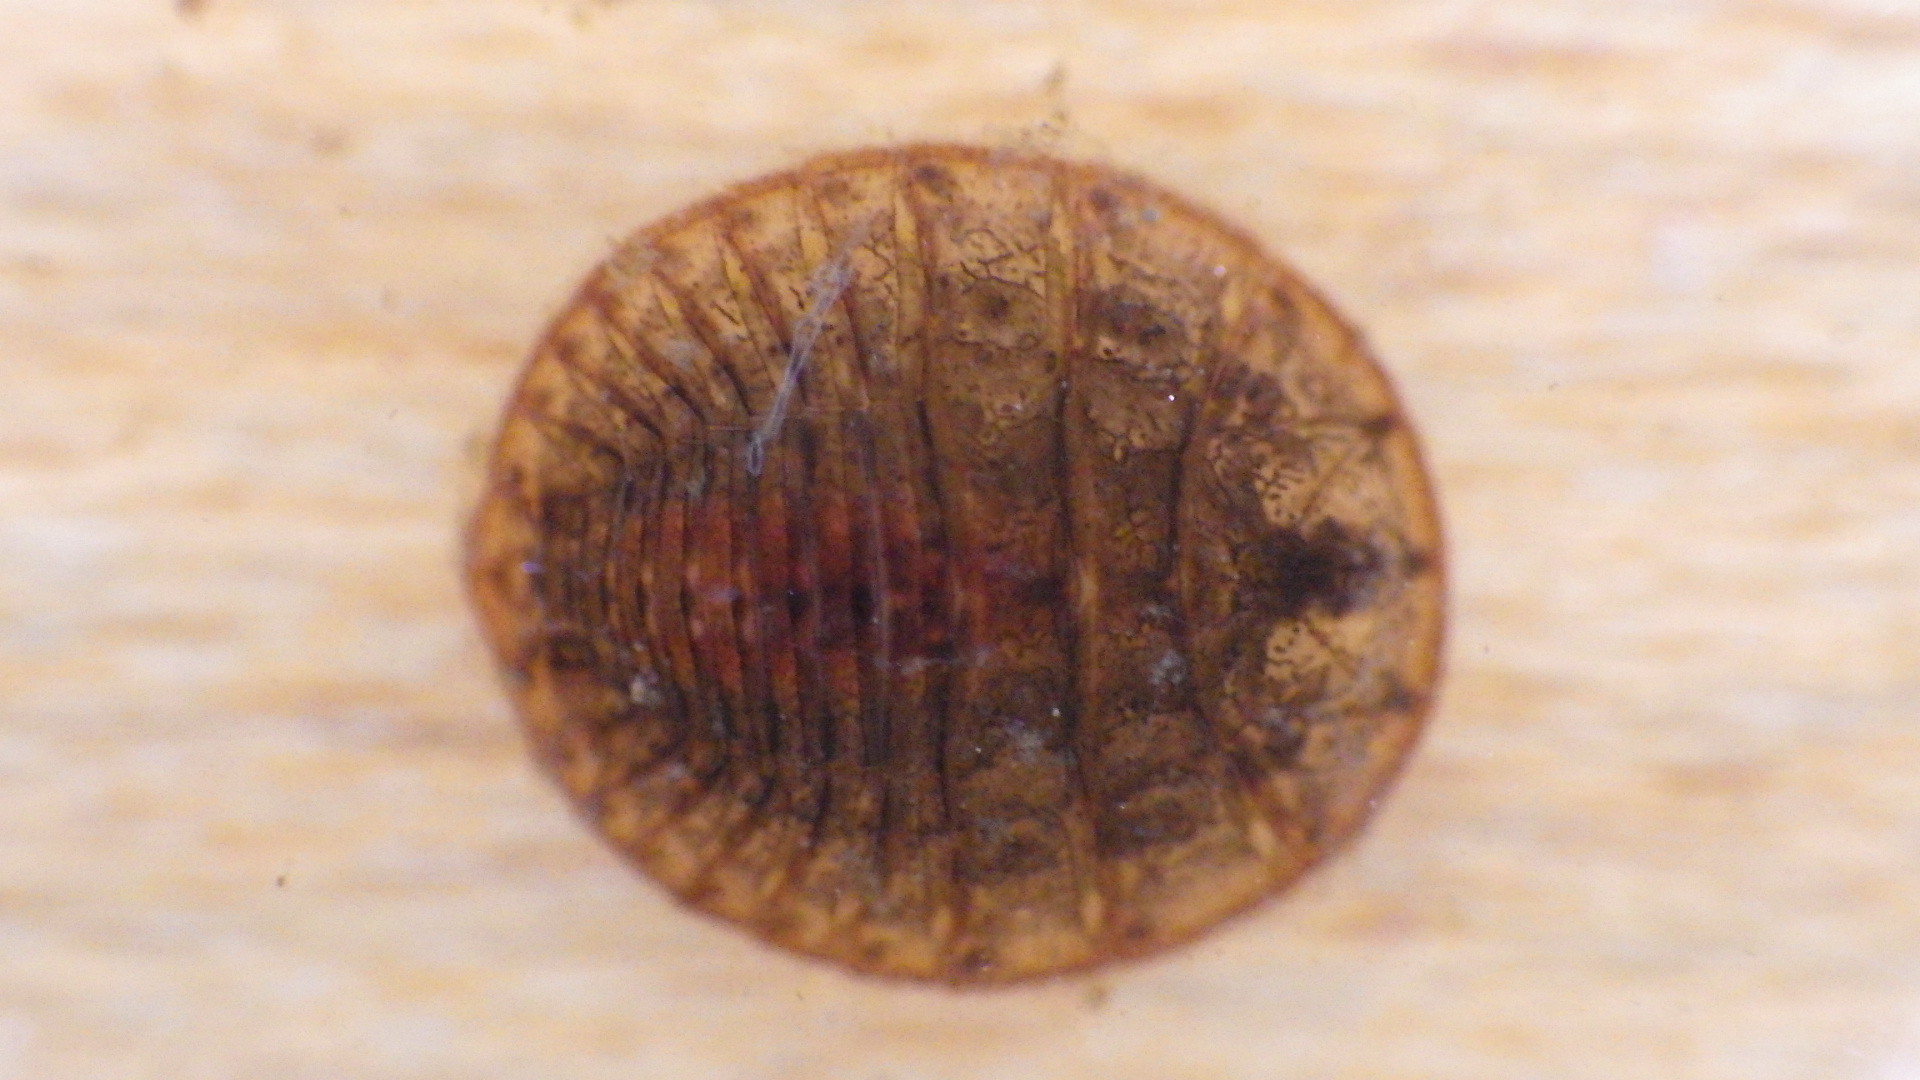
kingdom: Animalia
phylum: Arthropoda
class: Insecta
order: Coleoptera
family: Psephenidae
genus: Psephenus
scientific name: Psephenus herricki
